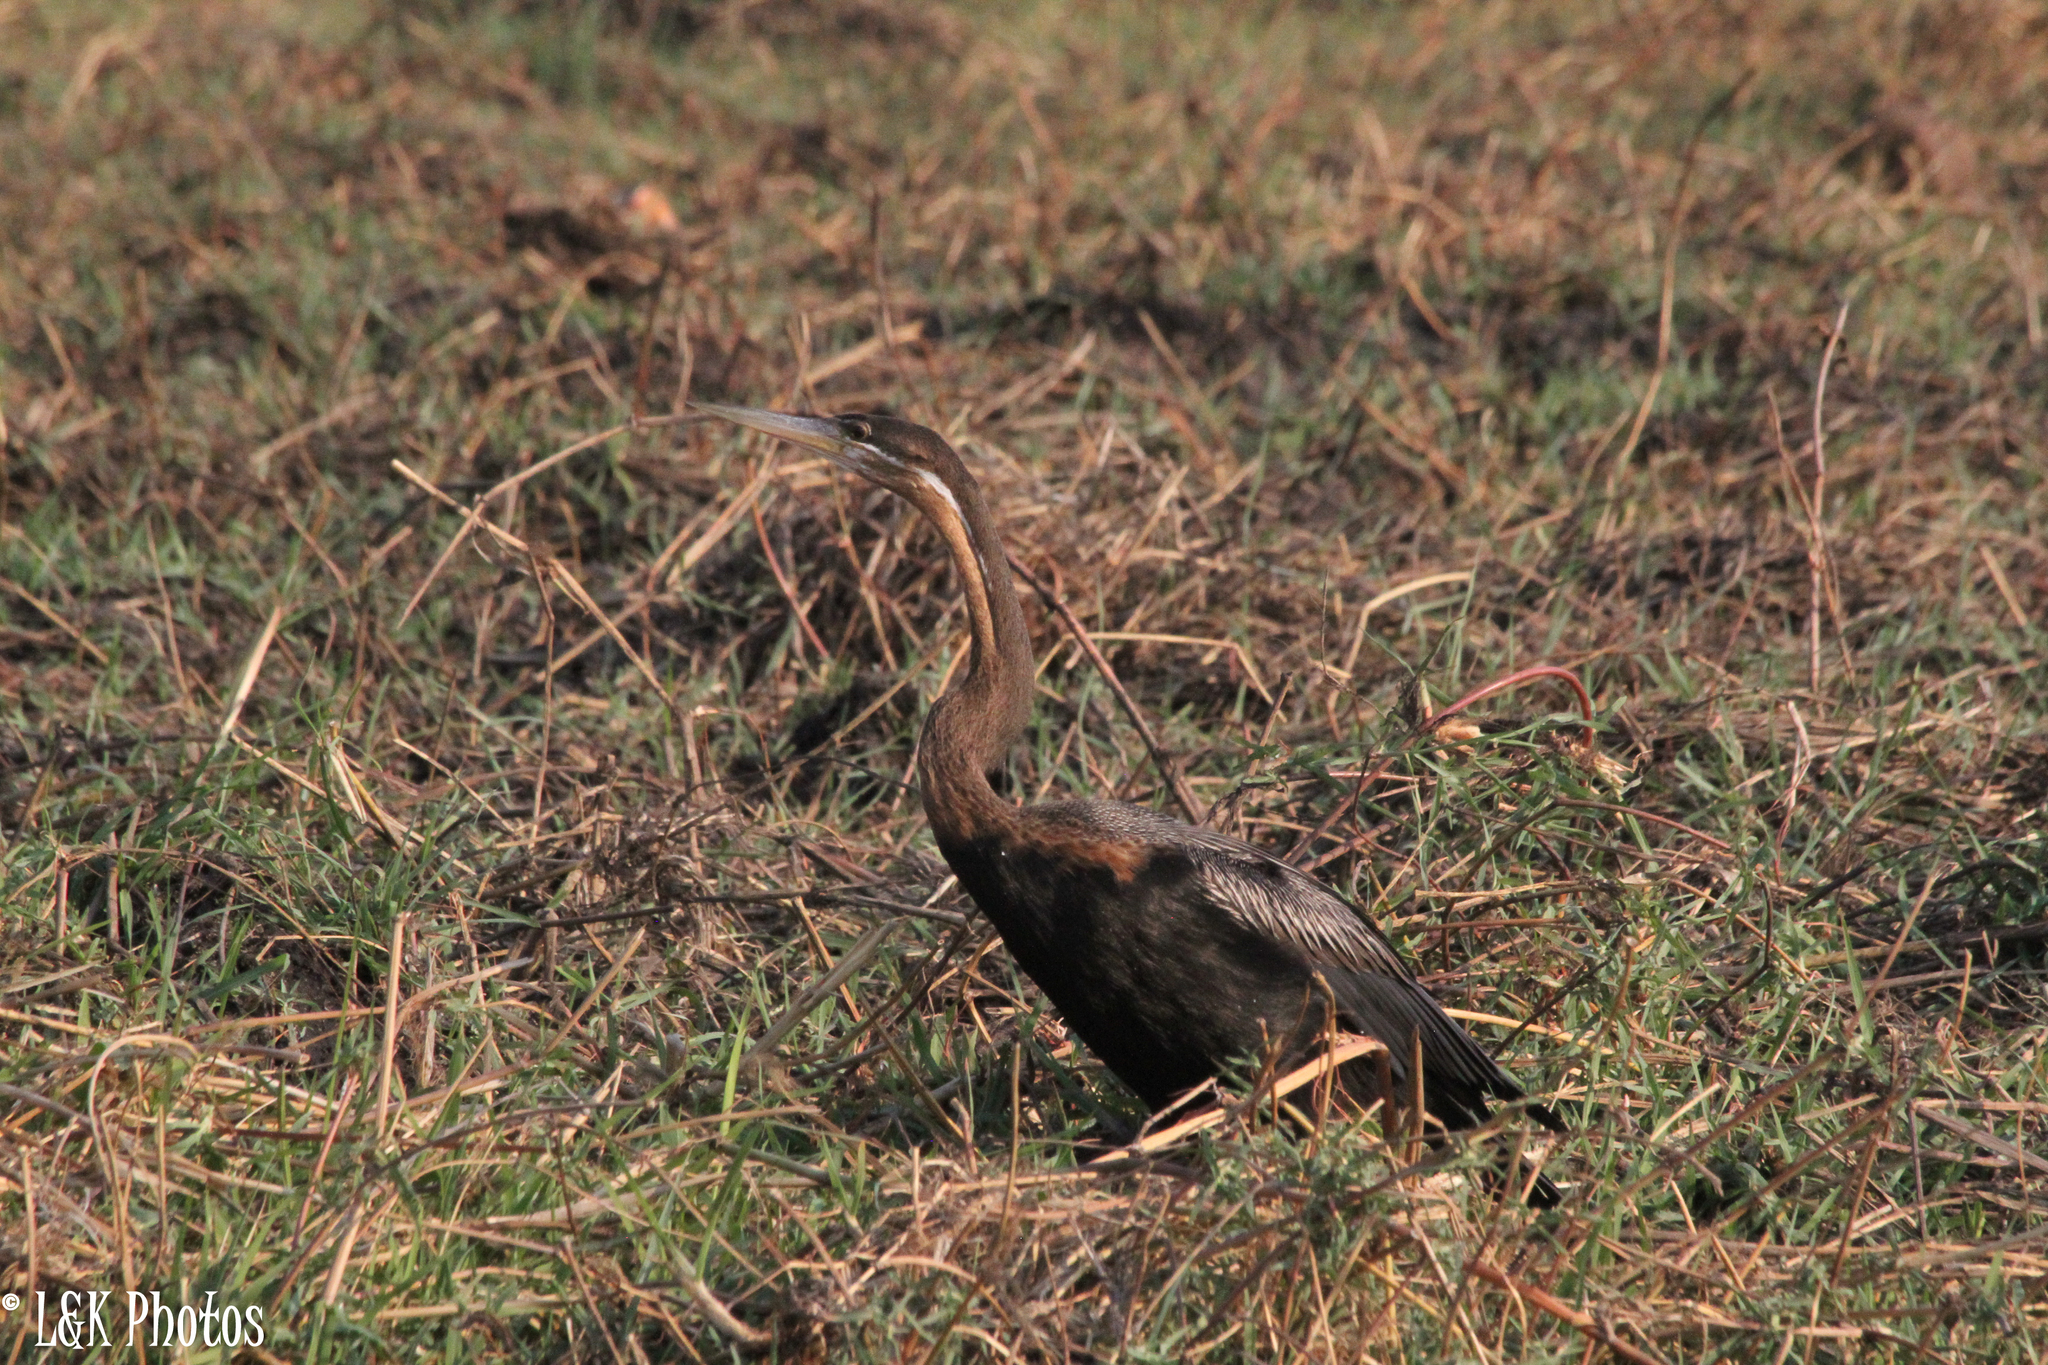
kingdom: Animalia
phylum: Chordata
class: Aves
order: Suliformes
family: Anhingidae
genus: Anhinga
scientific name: Anhinga rufa
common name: African darter
